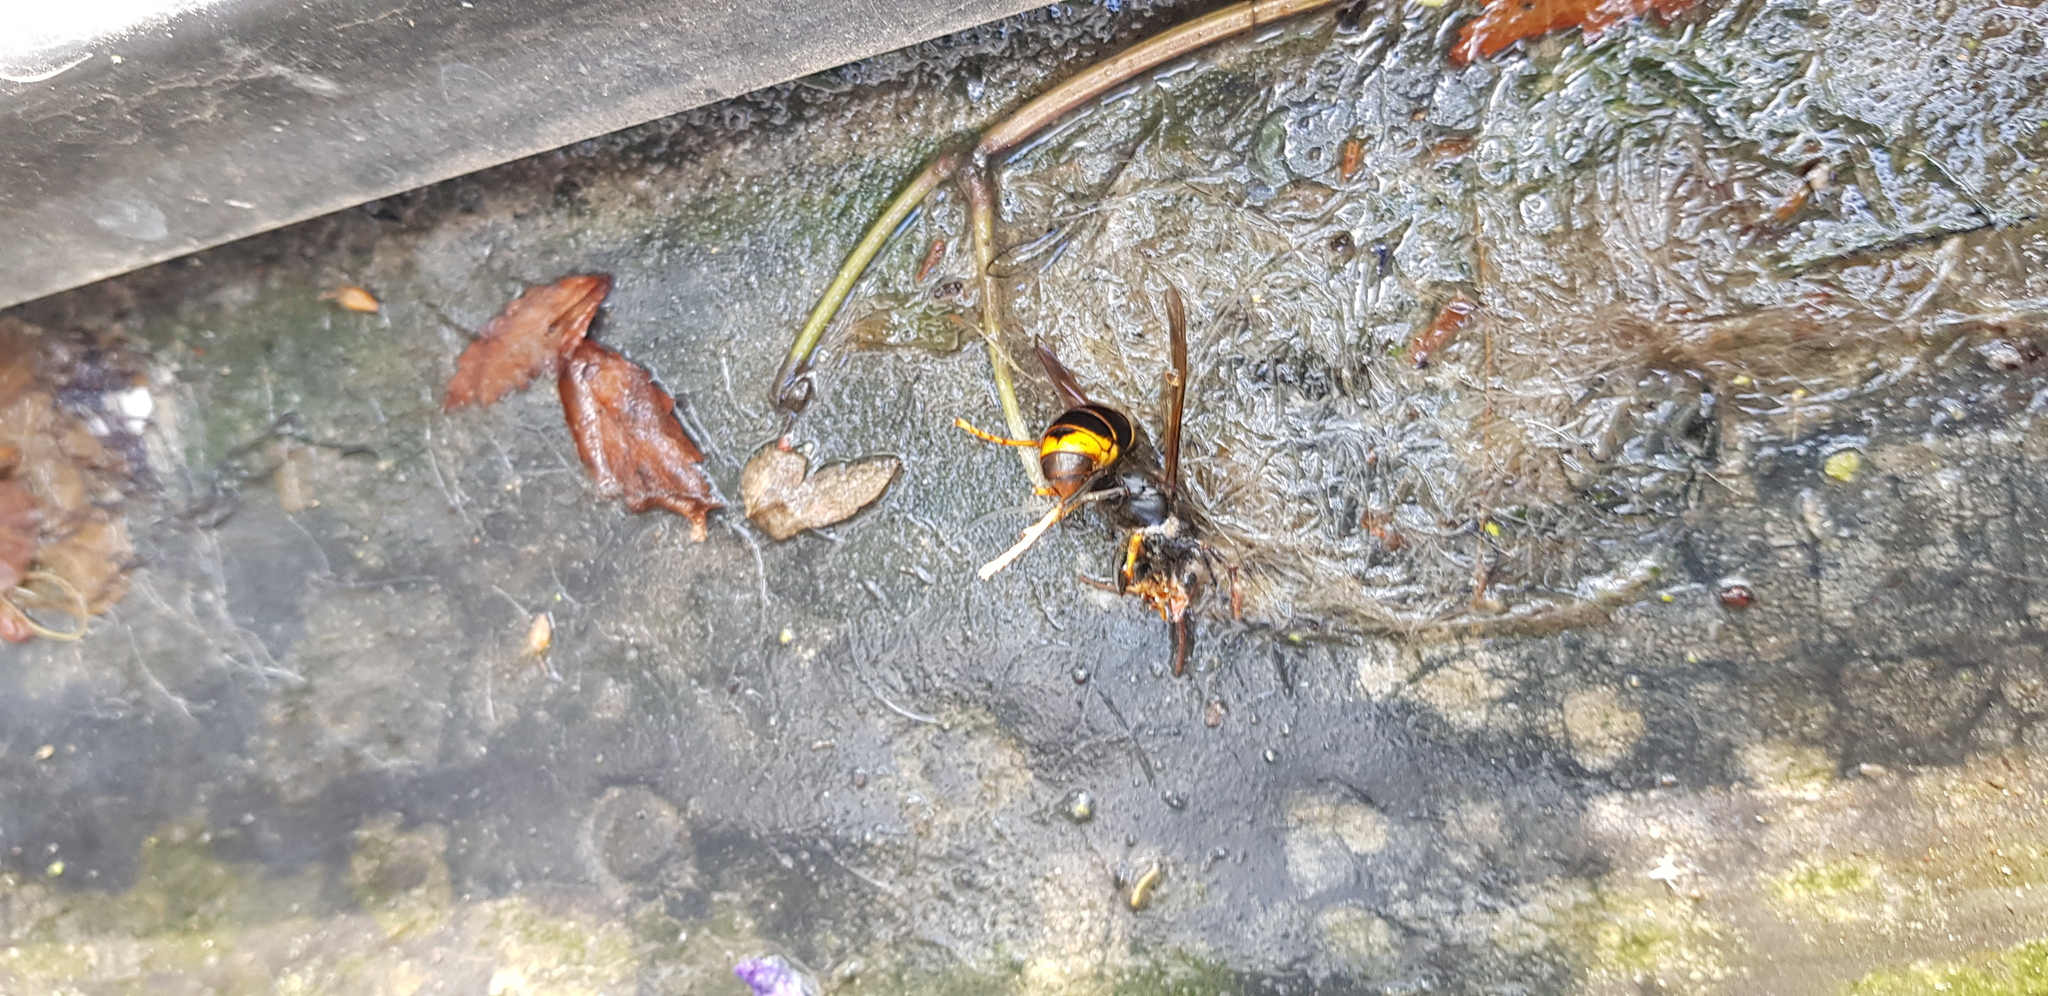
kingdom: Animalia
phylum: Arthropoda
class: Insecta
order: Hymenoptera
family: Vespidae
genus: Vespa
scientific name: Vespa velutina
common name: Asian hornet
